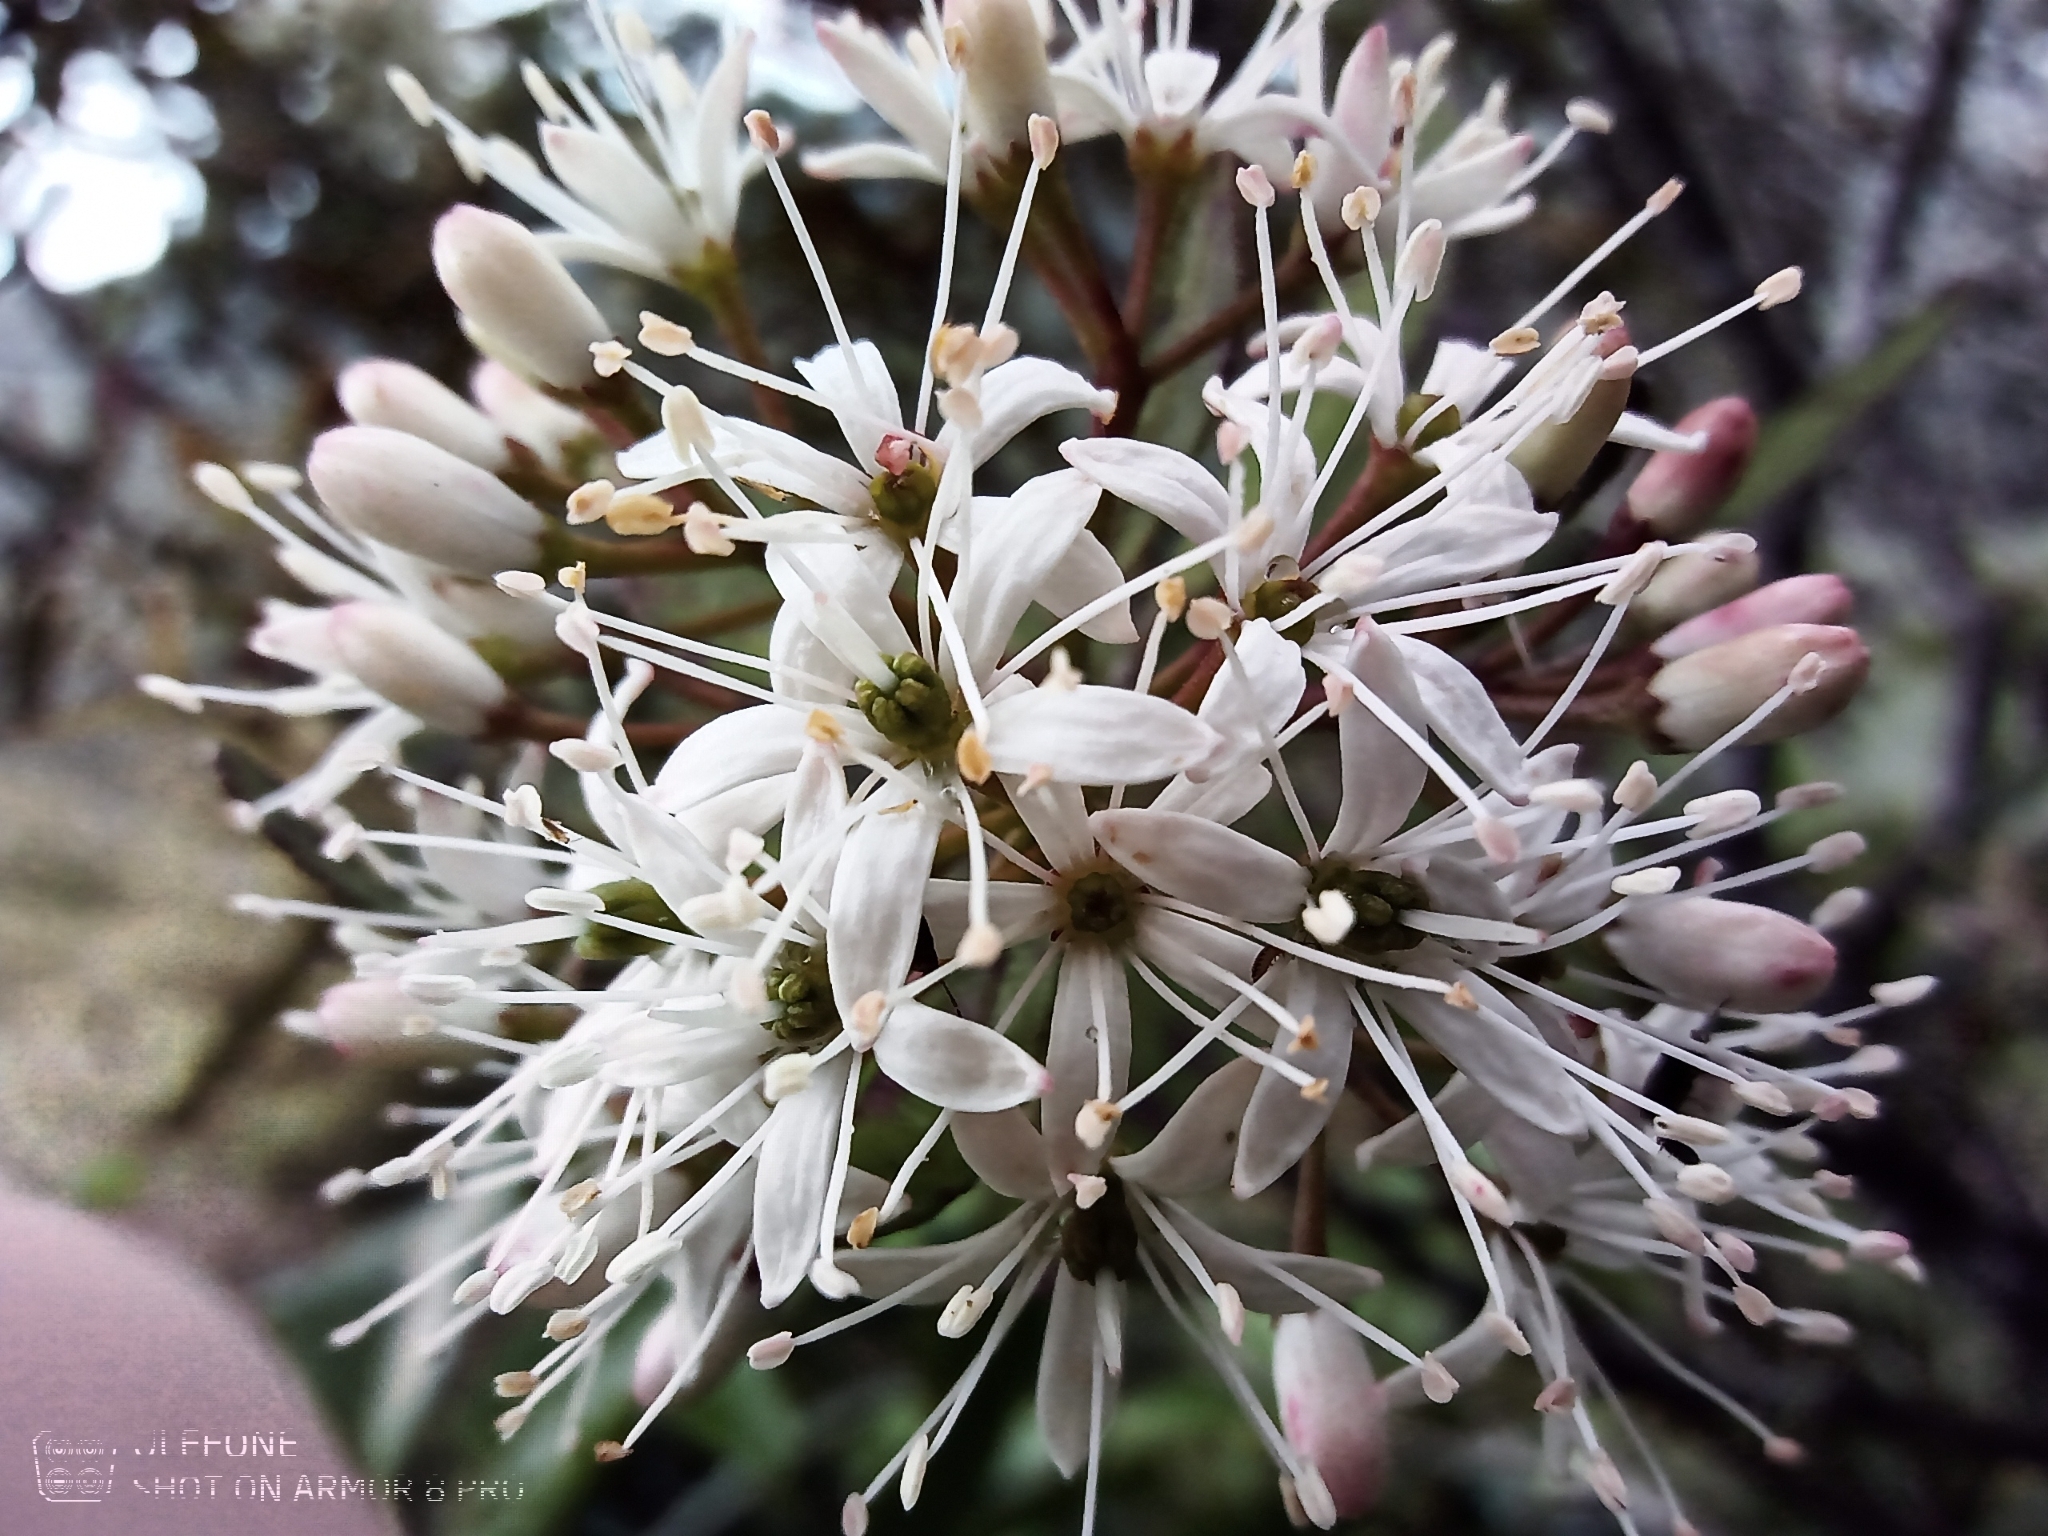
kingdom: Plantae
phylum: Tracheophyta
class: Magnoliopsida
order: Sapindales
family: Rutaceae
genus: Leionema
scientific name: Leionema nudum
